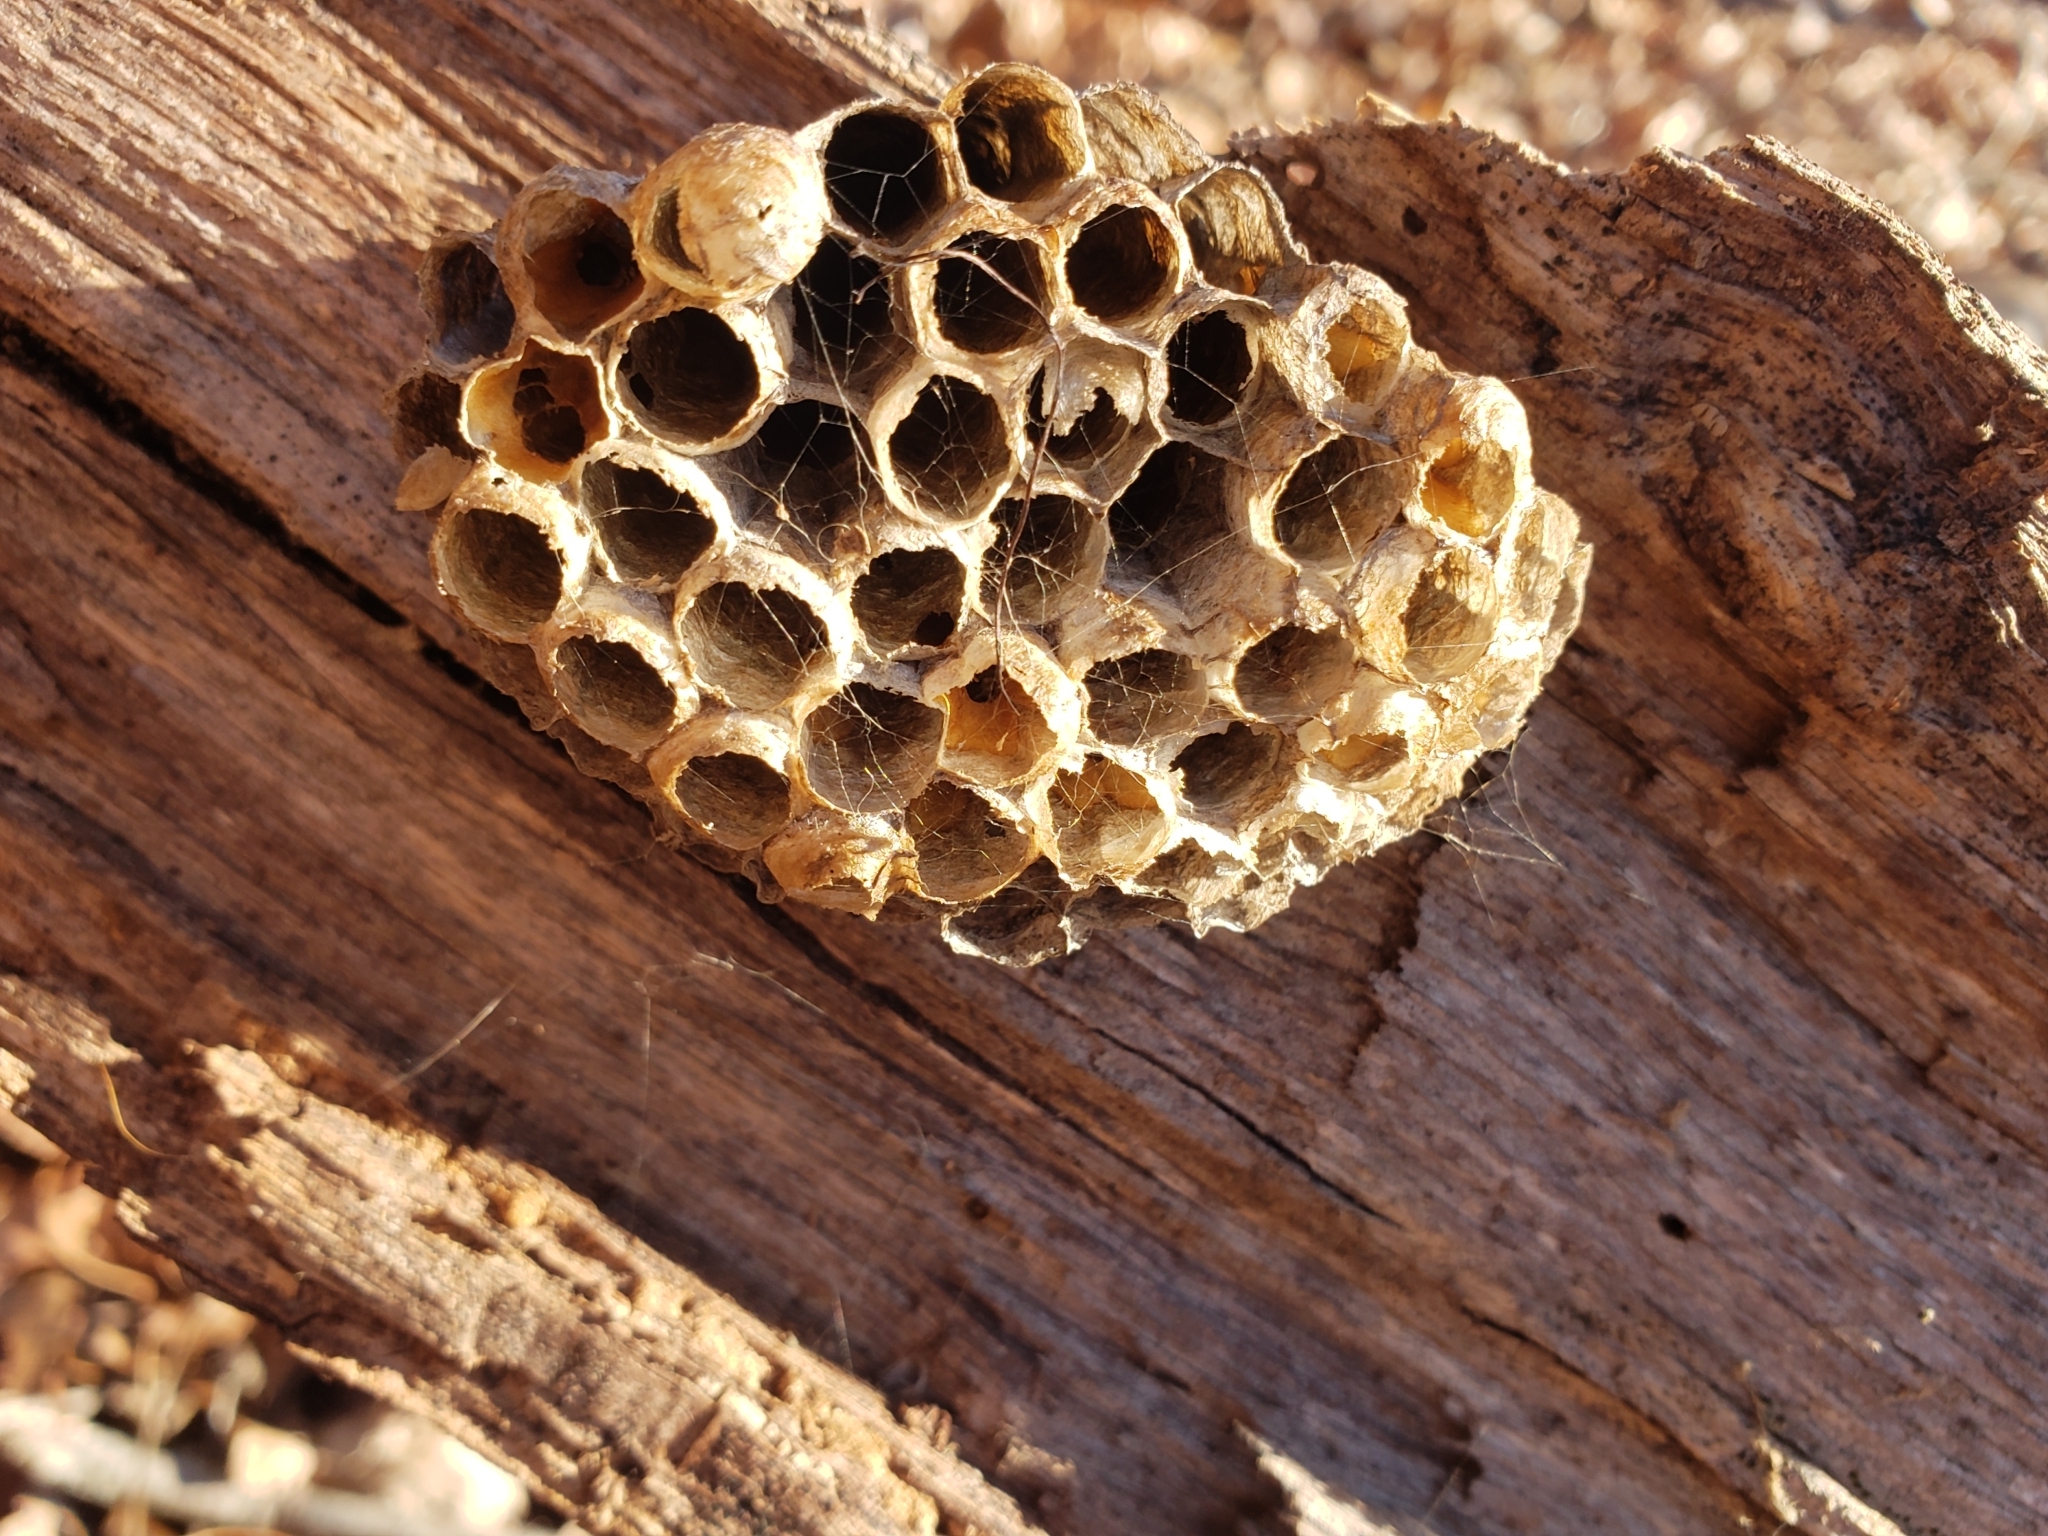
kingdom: Animalia
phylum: Arthropoda
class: Insecta
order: Hymenoptera
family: Eumenidae
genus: Polistes
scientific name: Polistes
